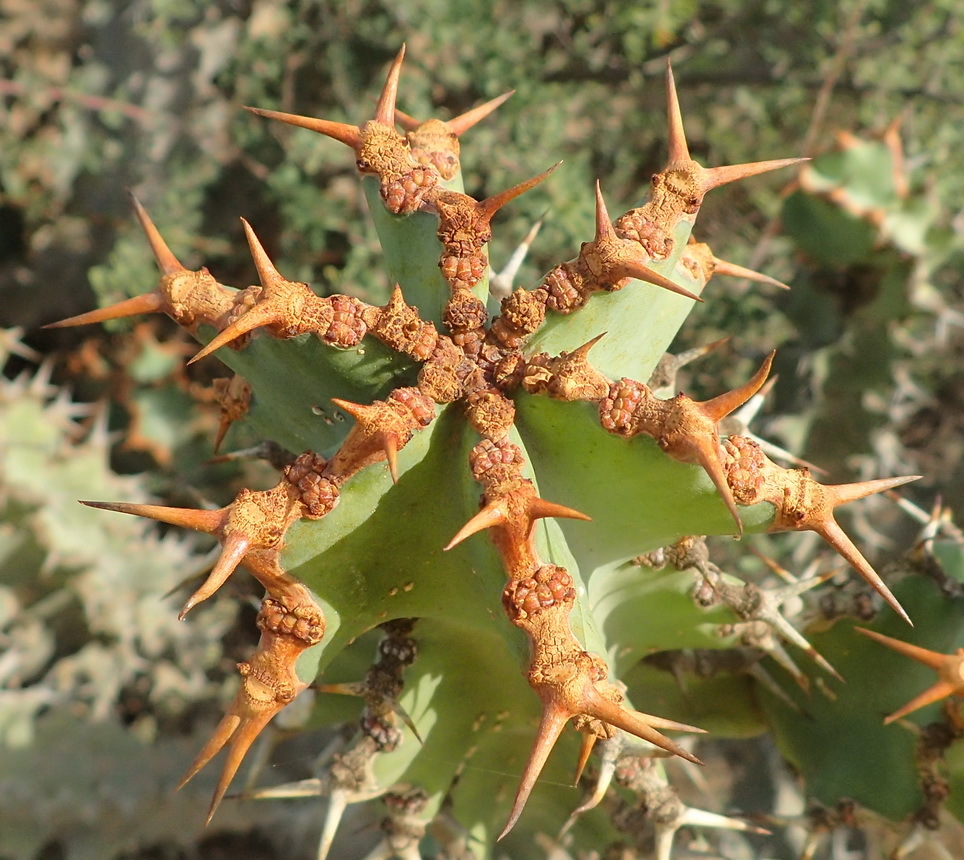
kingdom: Plantae
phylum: Tracheophyta
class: Magnoliopsida
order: Malpighiales
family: Euphorbiaceae
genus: Euphorbia
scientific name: Euphorbia radyeri
